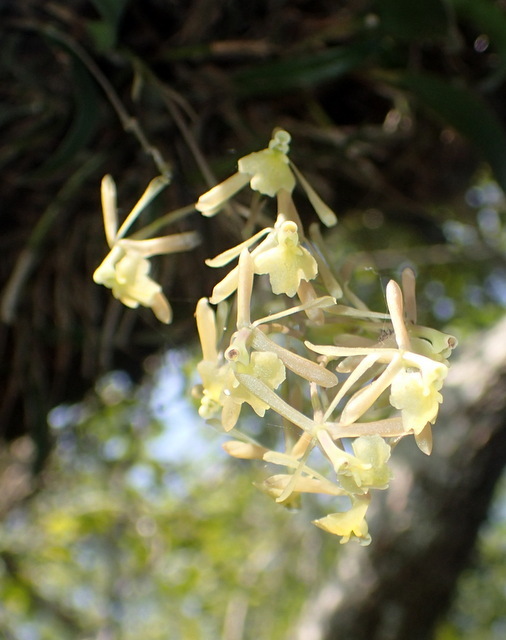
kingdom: Plantae
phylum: Tracheophyta
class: Liliopsida
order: Asparagales
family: Orchidaceae
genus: Epidendrum
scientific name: Epidendrum conopseum
